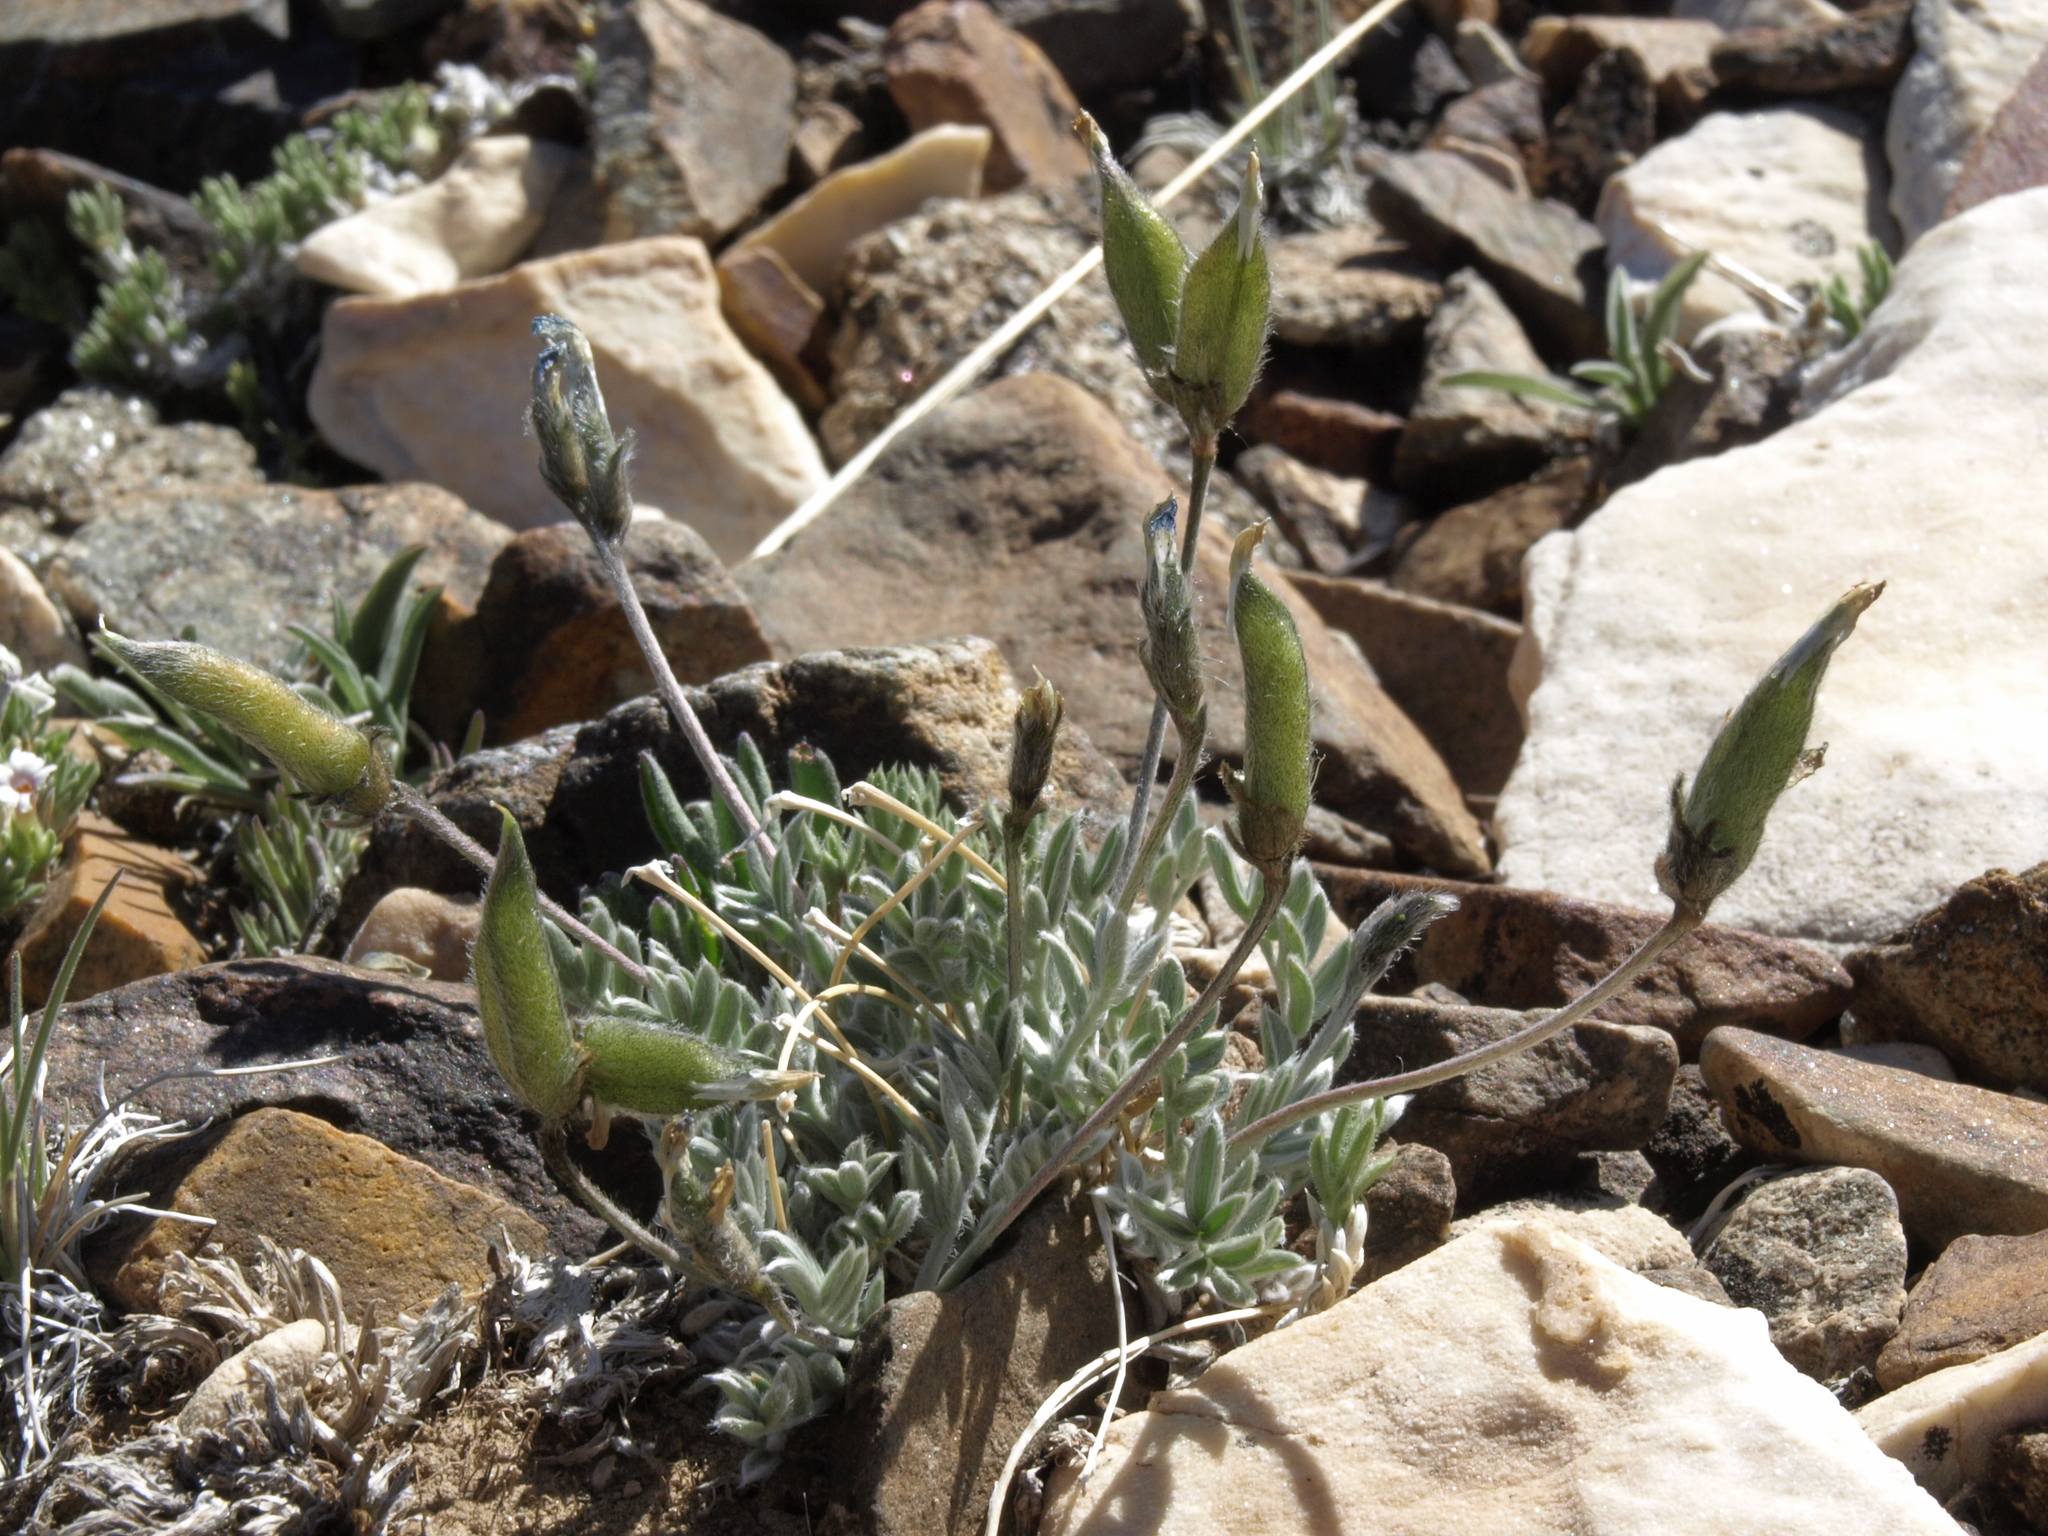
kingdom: Plantae
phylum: Tracheophyta
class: Magnoliopsida
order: Fabales
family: Fabaceae
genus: Oxytropis
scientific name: Oxytropis parryi
